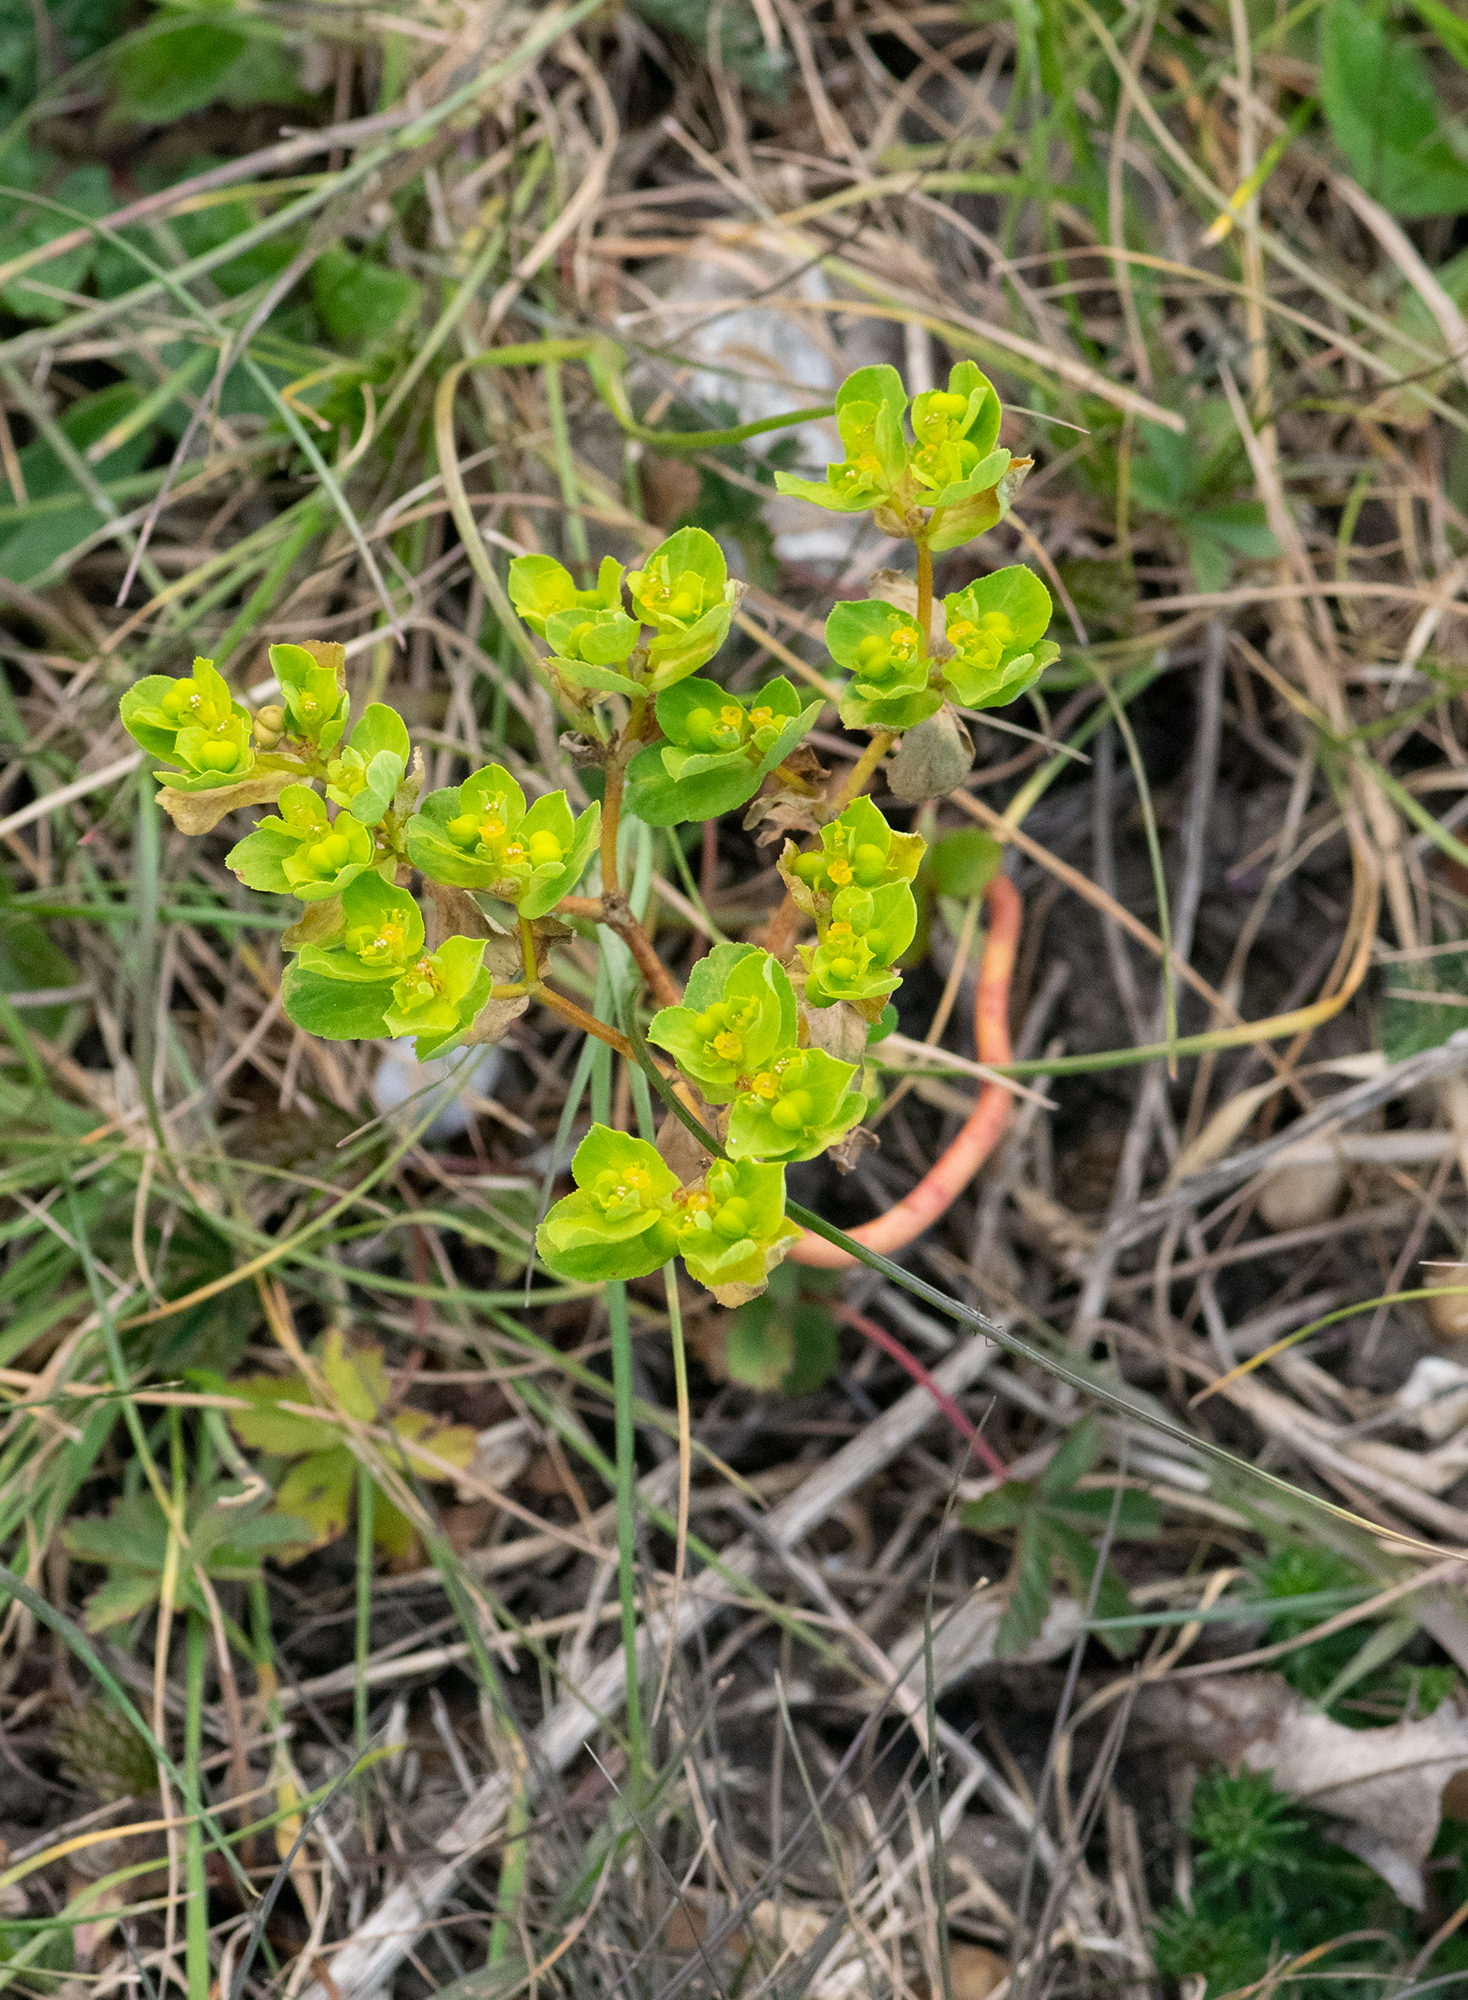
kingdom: Plantae
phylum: Tracheophyta
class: Magnoliopsida
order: Malpighiales
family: Euphorbiaceae
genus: Euphorbia
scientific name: Euphorbia helioscopia
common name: Sun spurge
